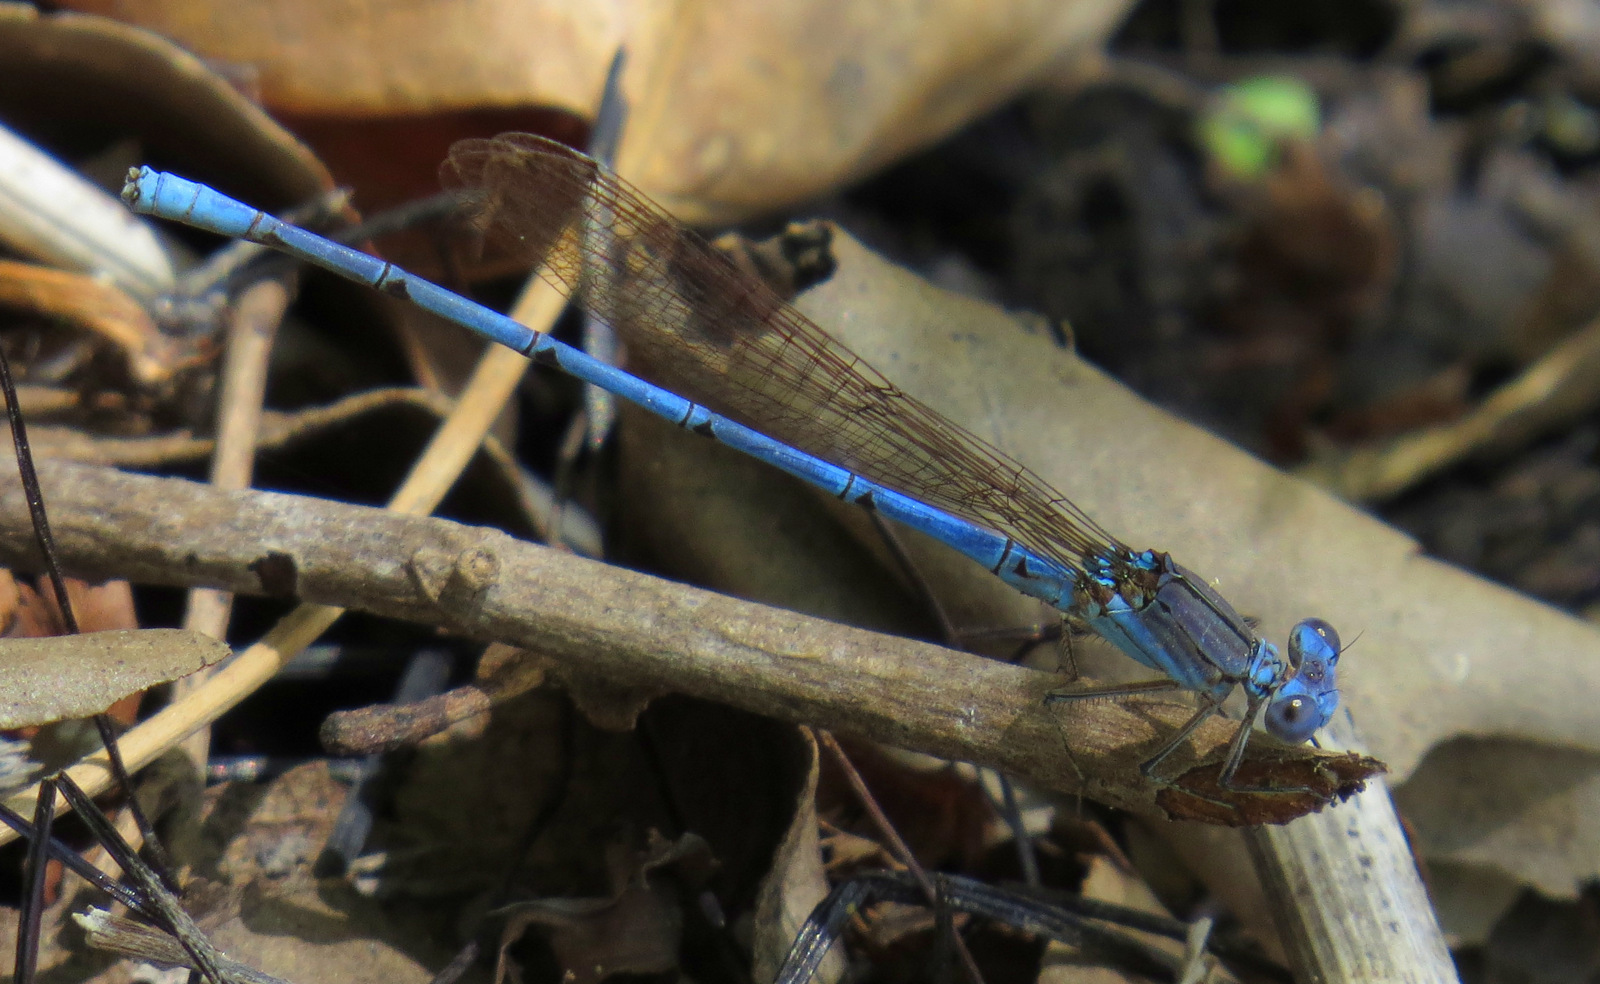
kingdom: Animalia
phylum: Arthropoda
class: Insecta
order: Odonata
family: Coenagrionidae
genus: Argia
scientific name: Argia anceps
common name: Cerulean dancer
